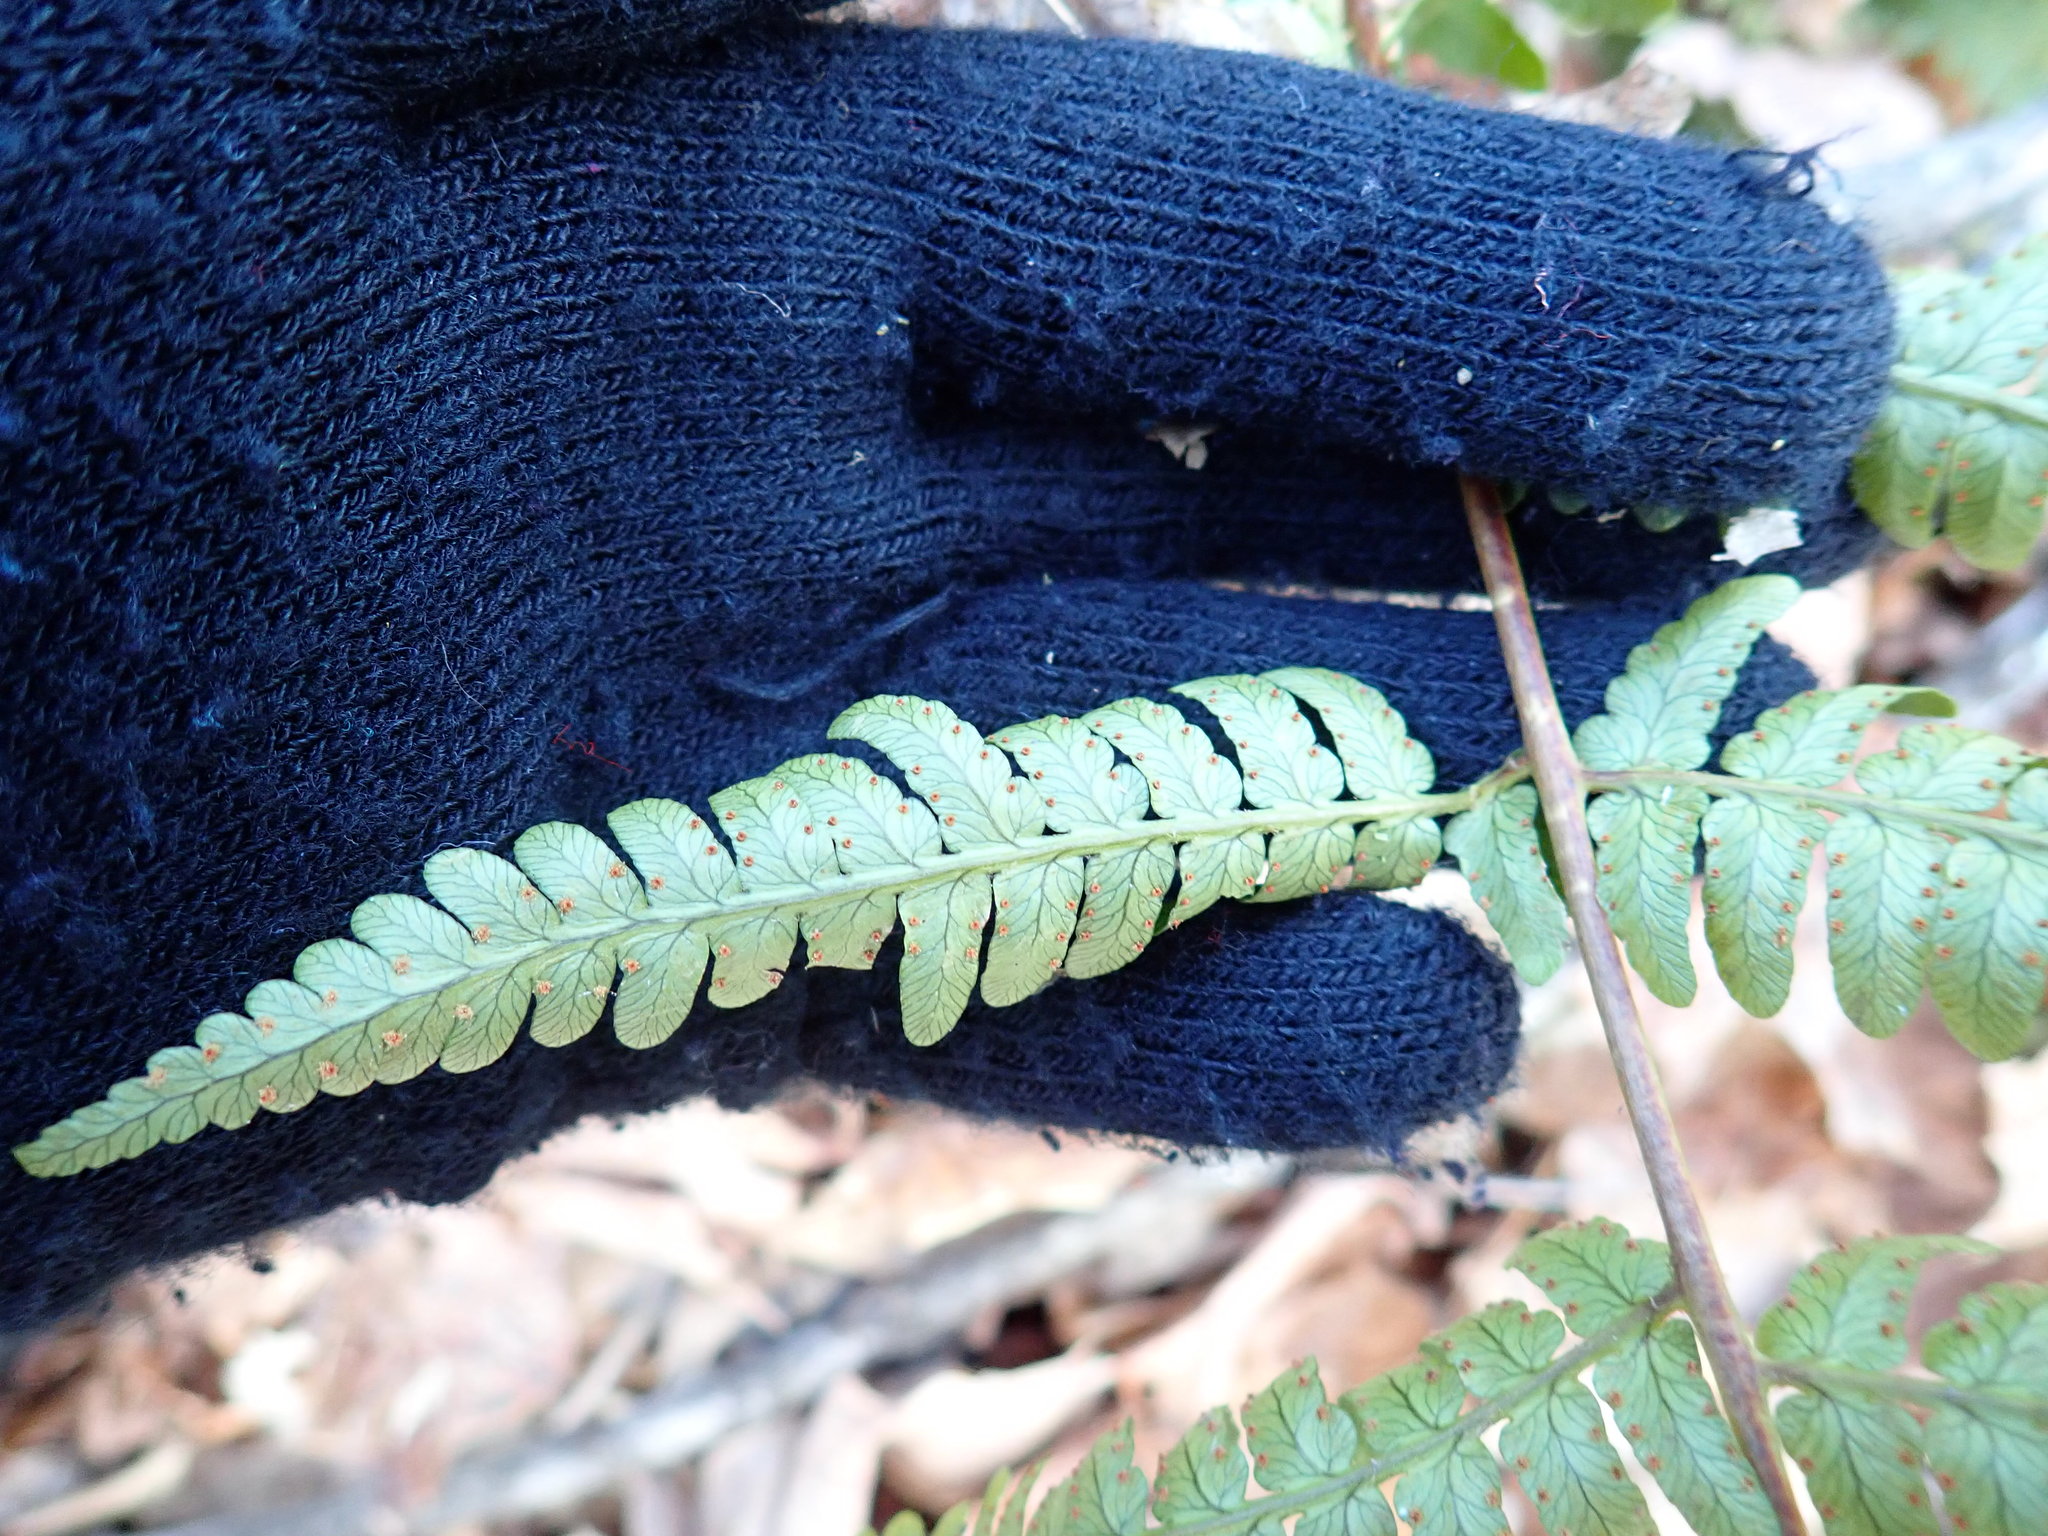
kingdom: Plantae
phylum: Tracheophyta
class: Polypodiopsida
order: Polypodiales
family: Dryopteridaceae
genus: Dryopteris
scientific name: Dryopteris marginalis
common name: Marginal wood fern
